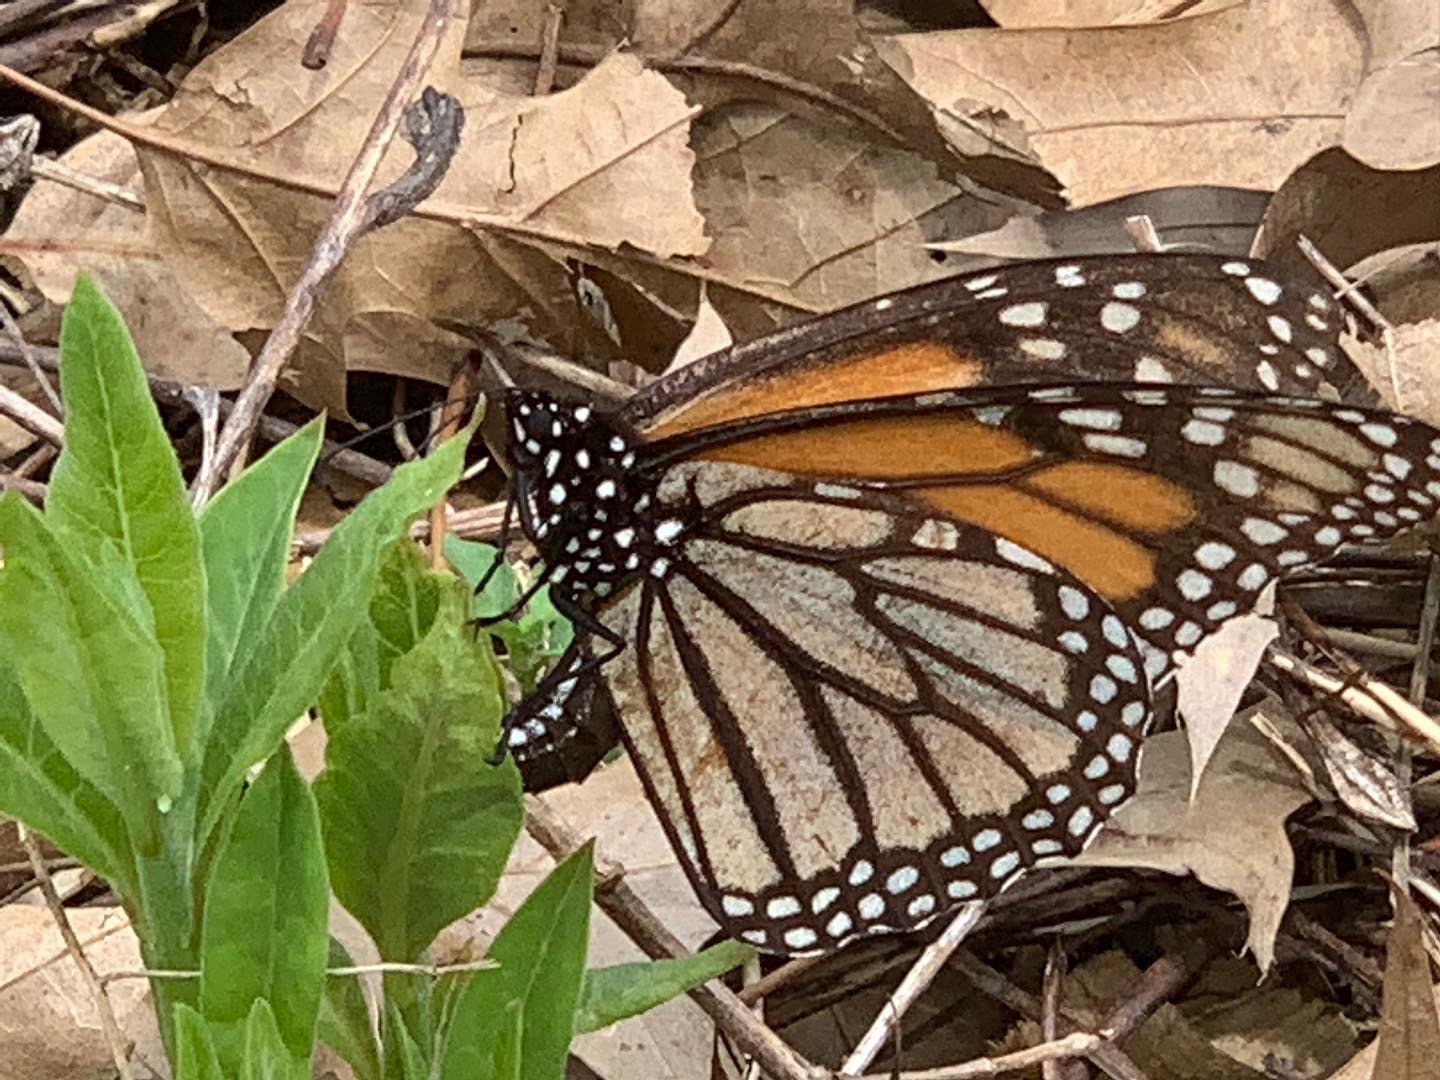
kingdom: Animalia
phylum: Arthropoda
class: Insecta
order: Lepidoptera
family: Nymphalidae
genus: Danaus
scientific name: Danaus plexippus
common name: Monarch
